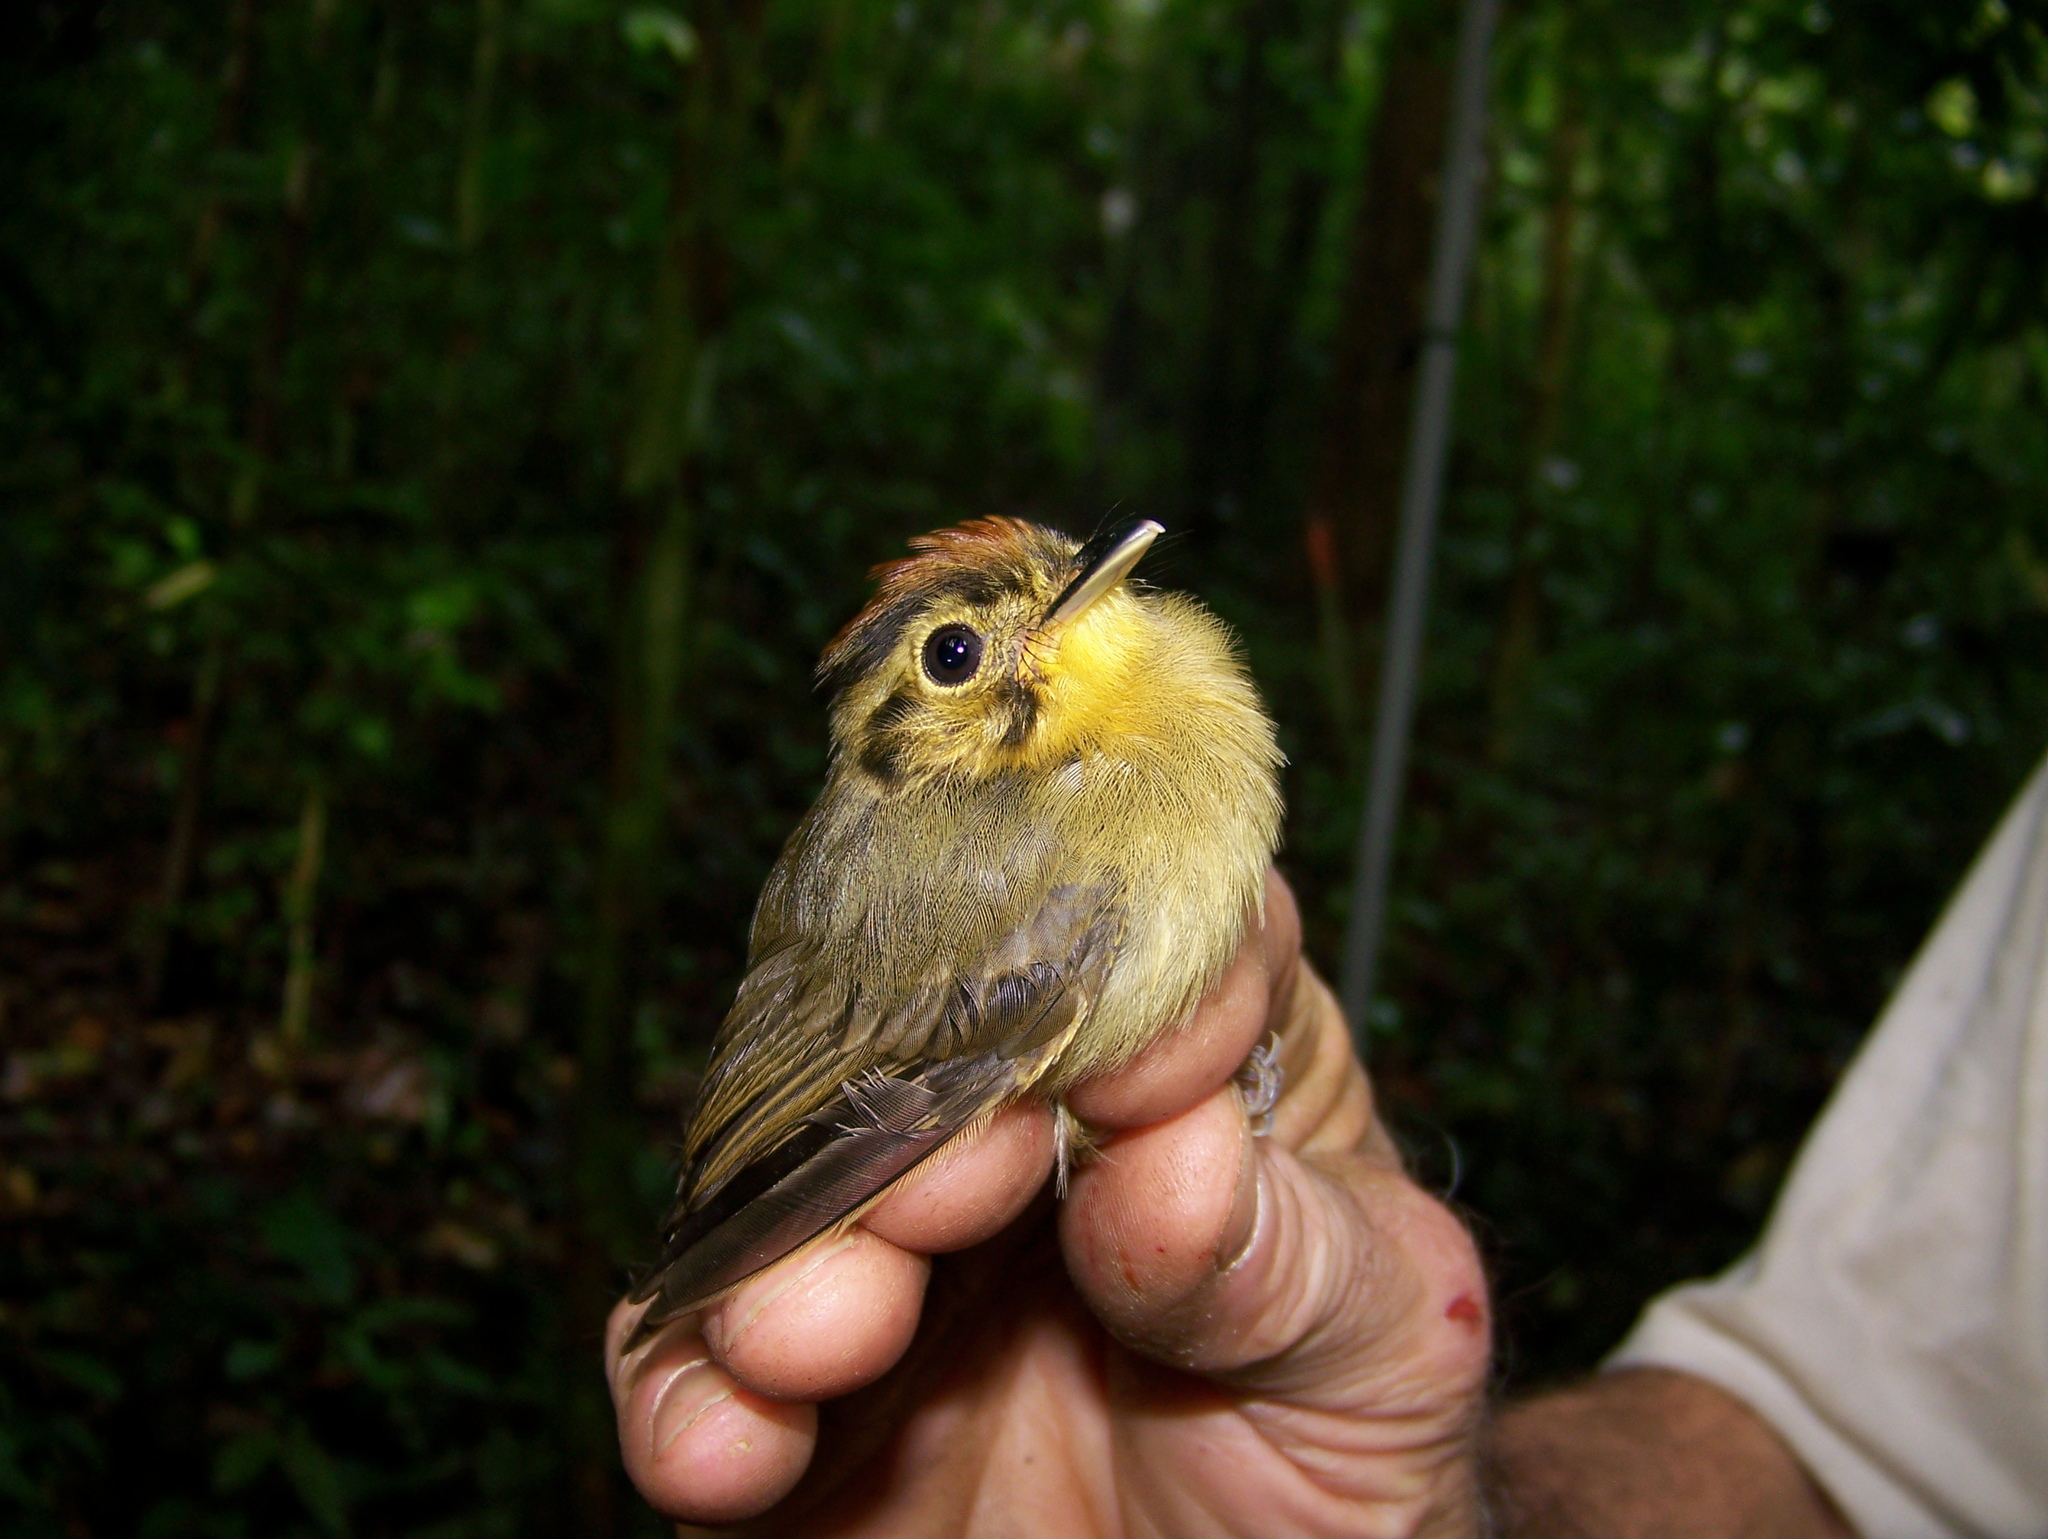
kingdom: Animalia
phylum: Chordata
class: Aves
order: Passeriformes
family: Tyrannidae
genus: Platyrinchus
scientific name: Platyrinchus coronatus
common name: Golden-crowned spadebill
